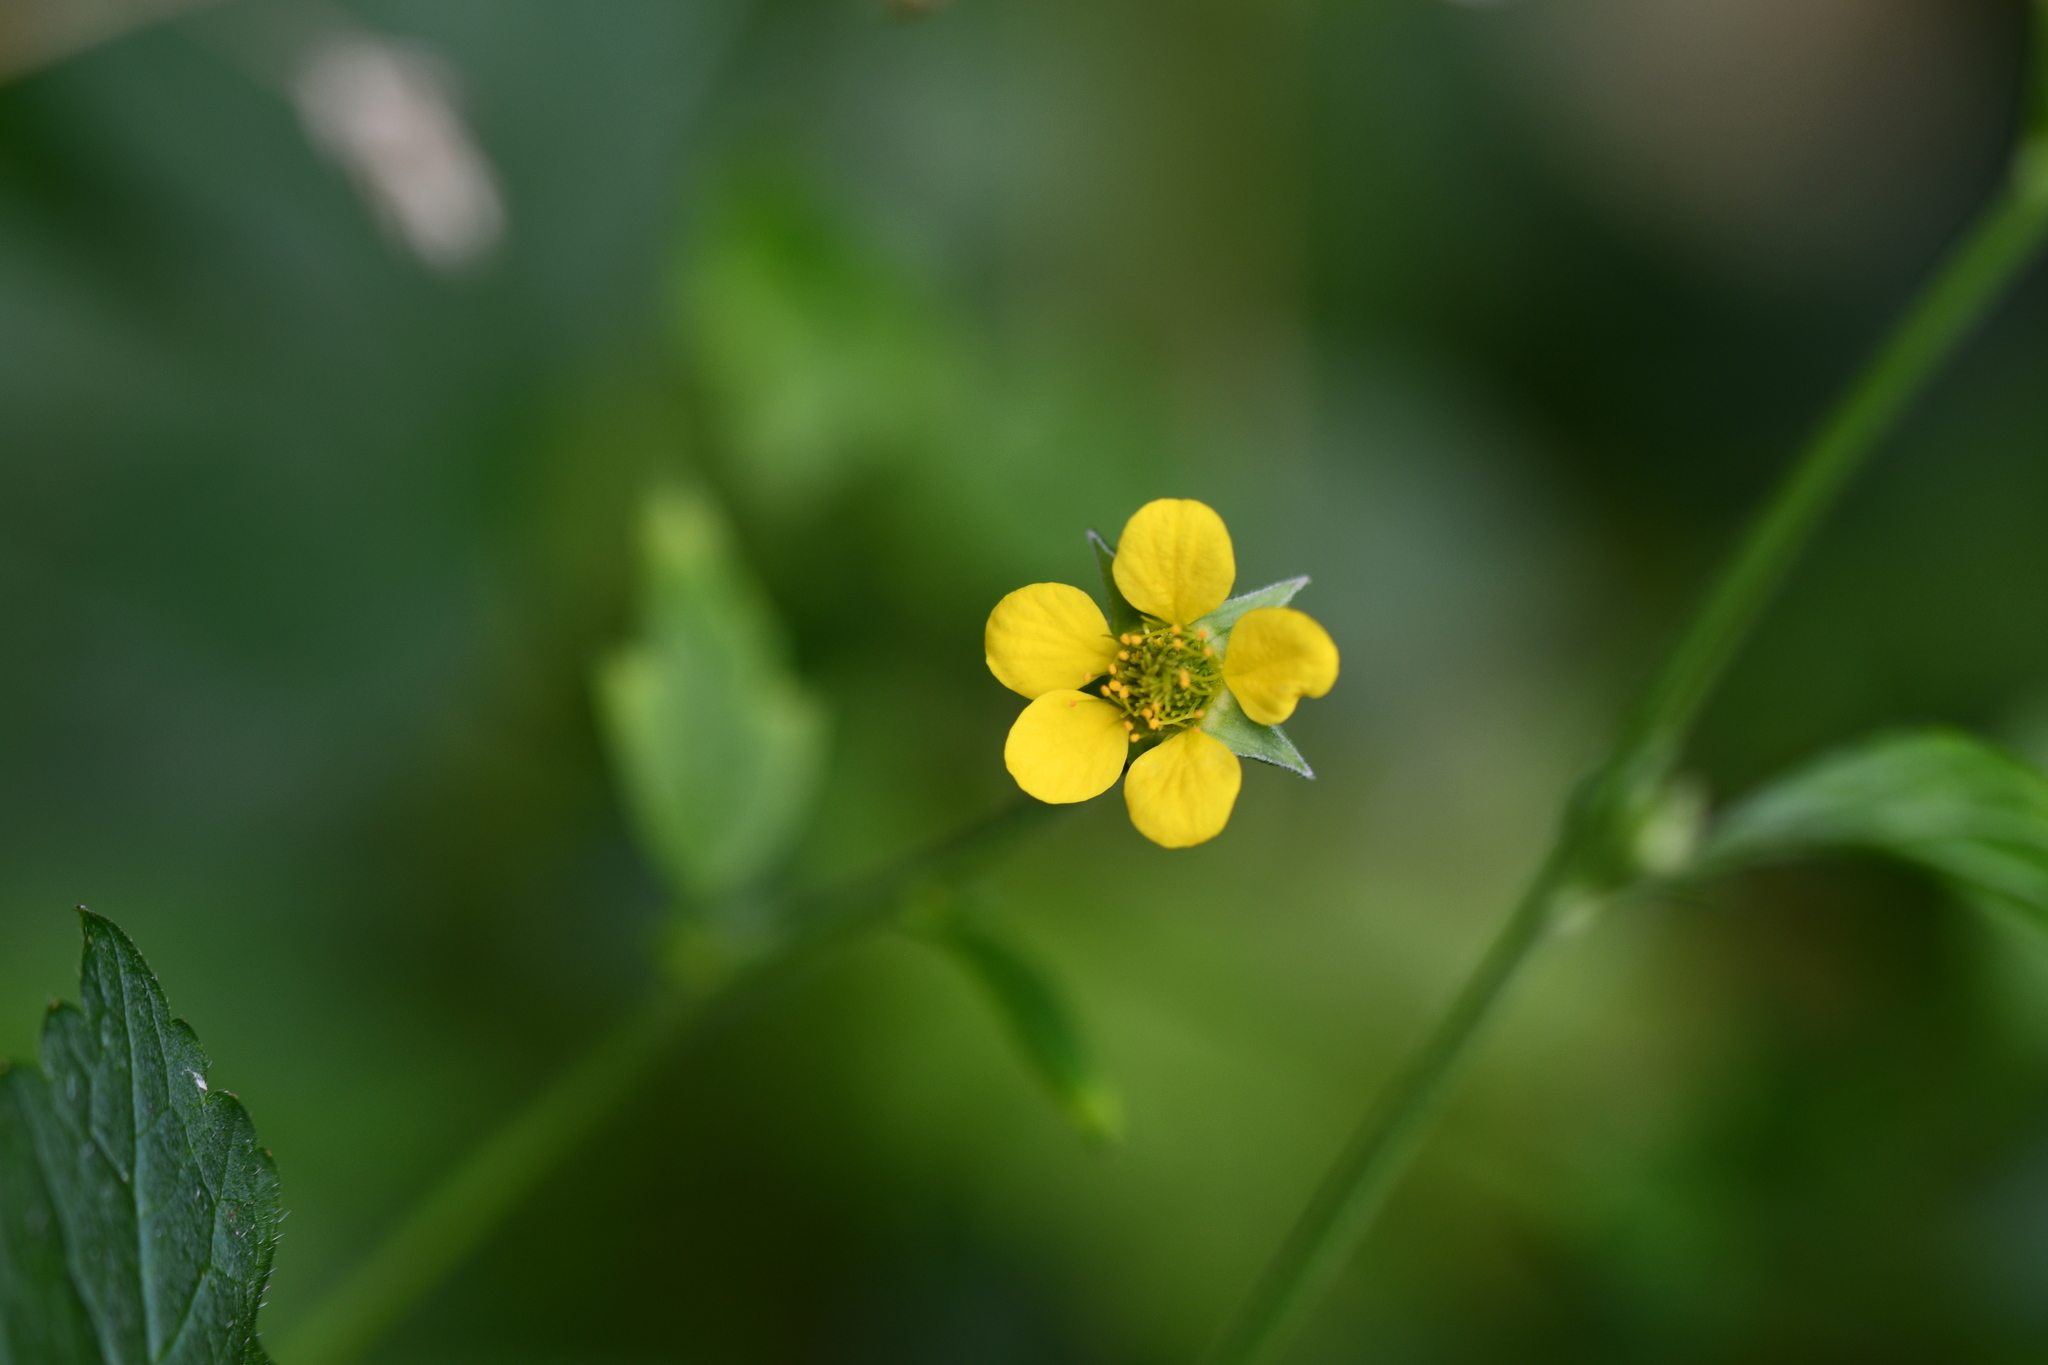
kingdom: Plantae
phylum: Tracheophyta
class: Magnoliopsida
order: Rosales
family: Rosaceae
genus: Geum
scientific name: Geum urbanum
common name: Wood avens
